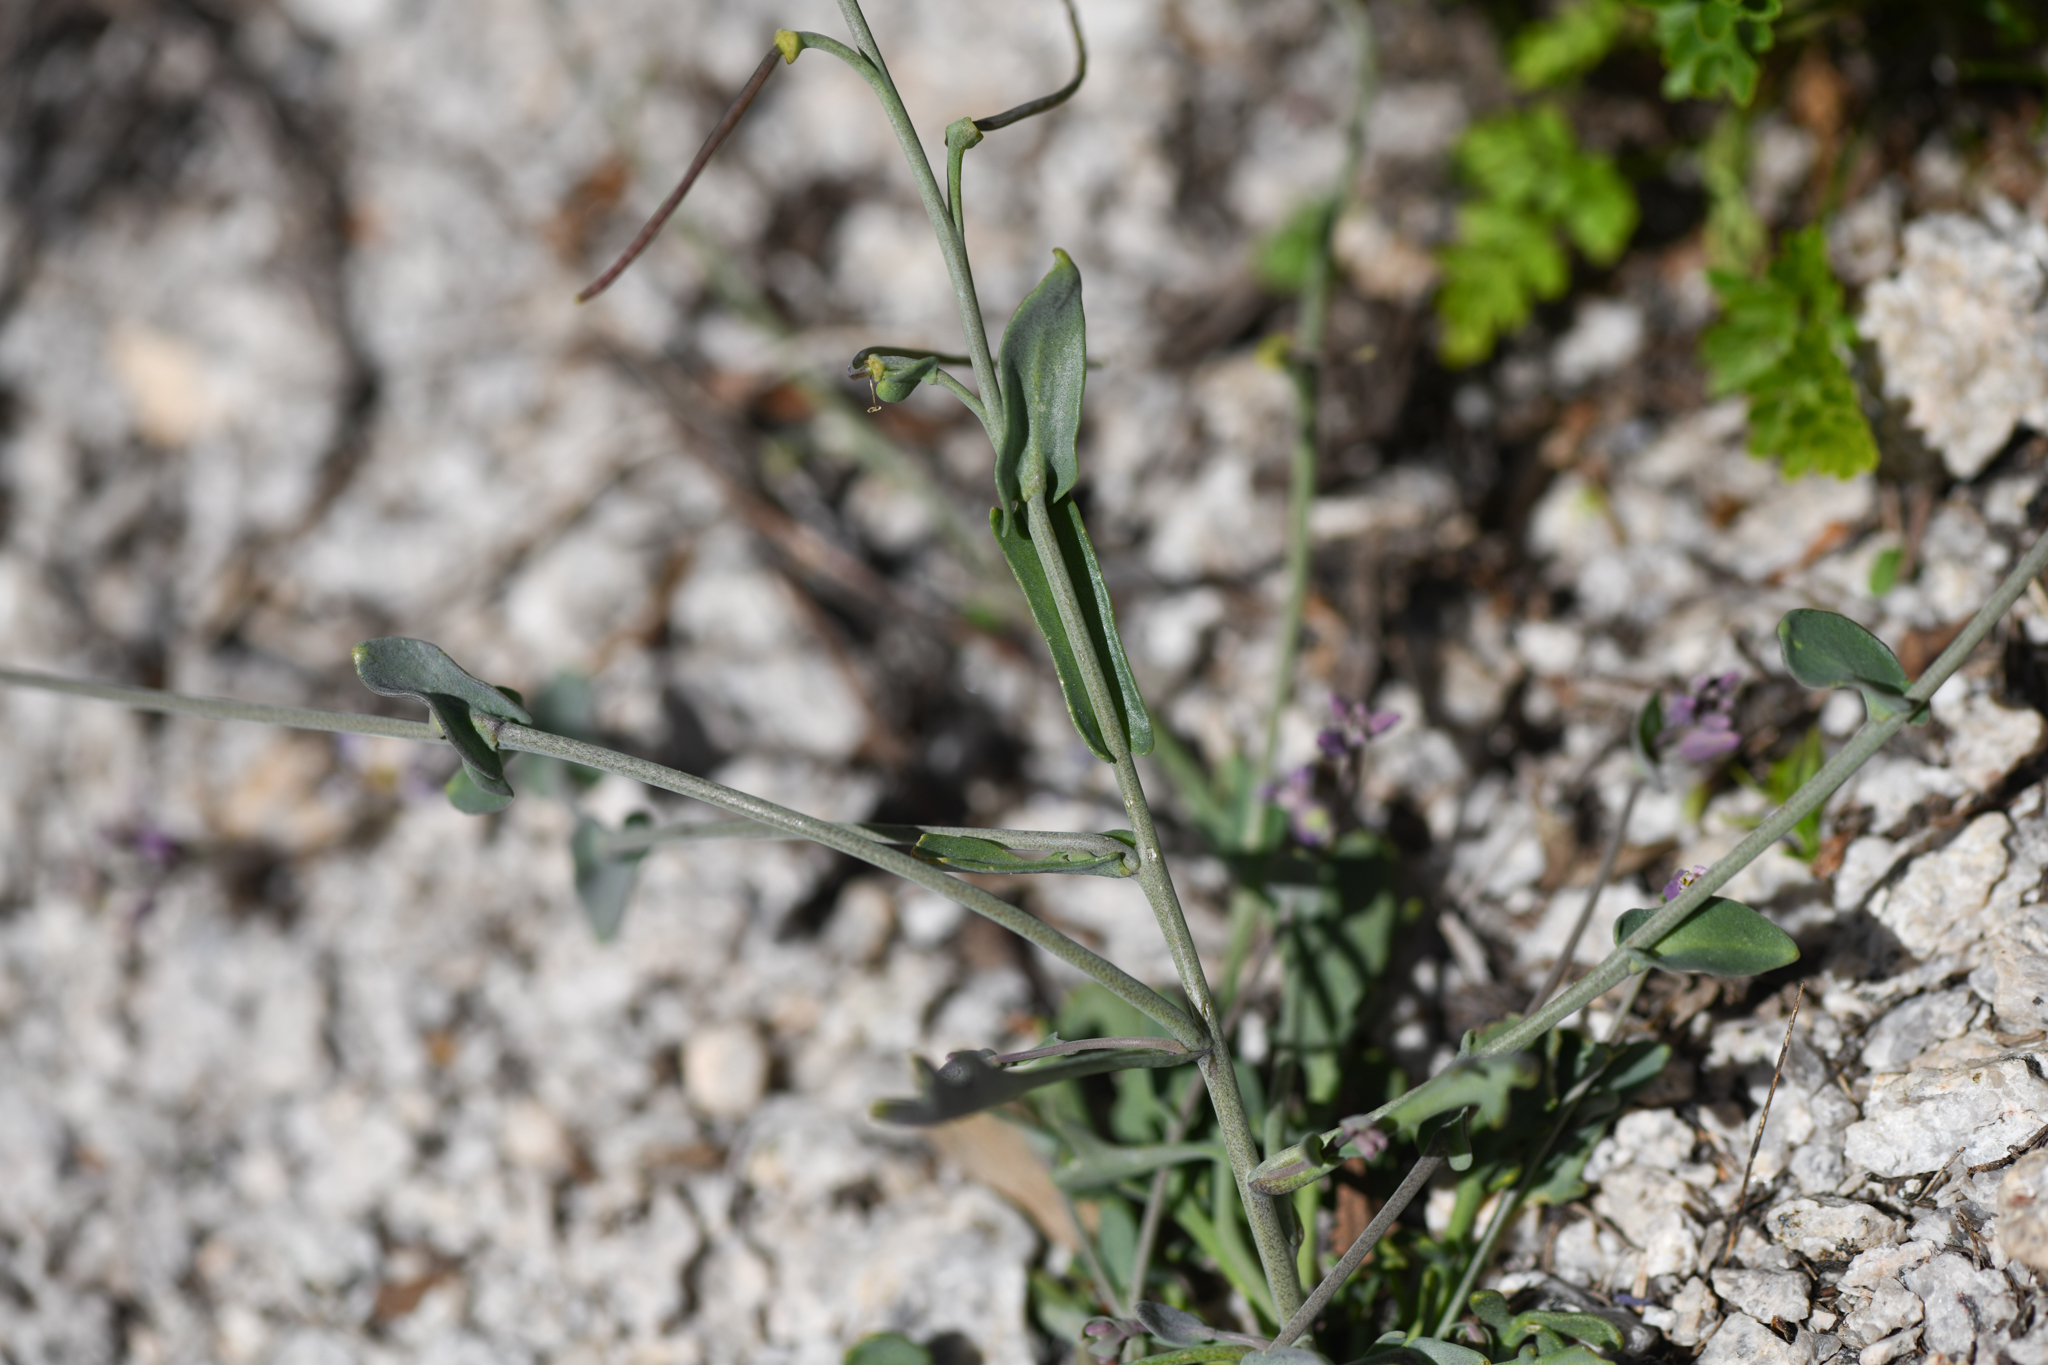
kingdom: Plantae
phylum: Tracheophyta
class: Magnoliopsida
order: Brassicales
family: Brassicaceae
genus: Streptanthus
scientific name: Streptanthus gracilis
